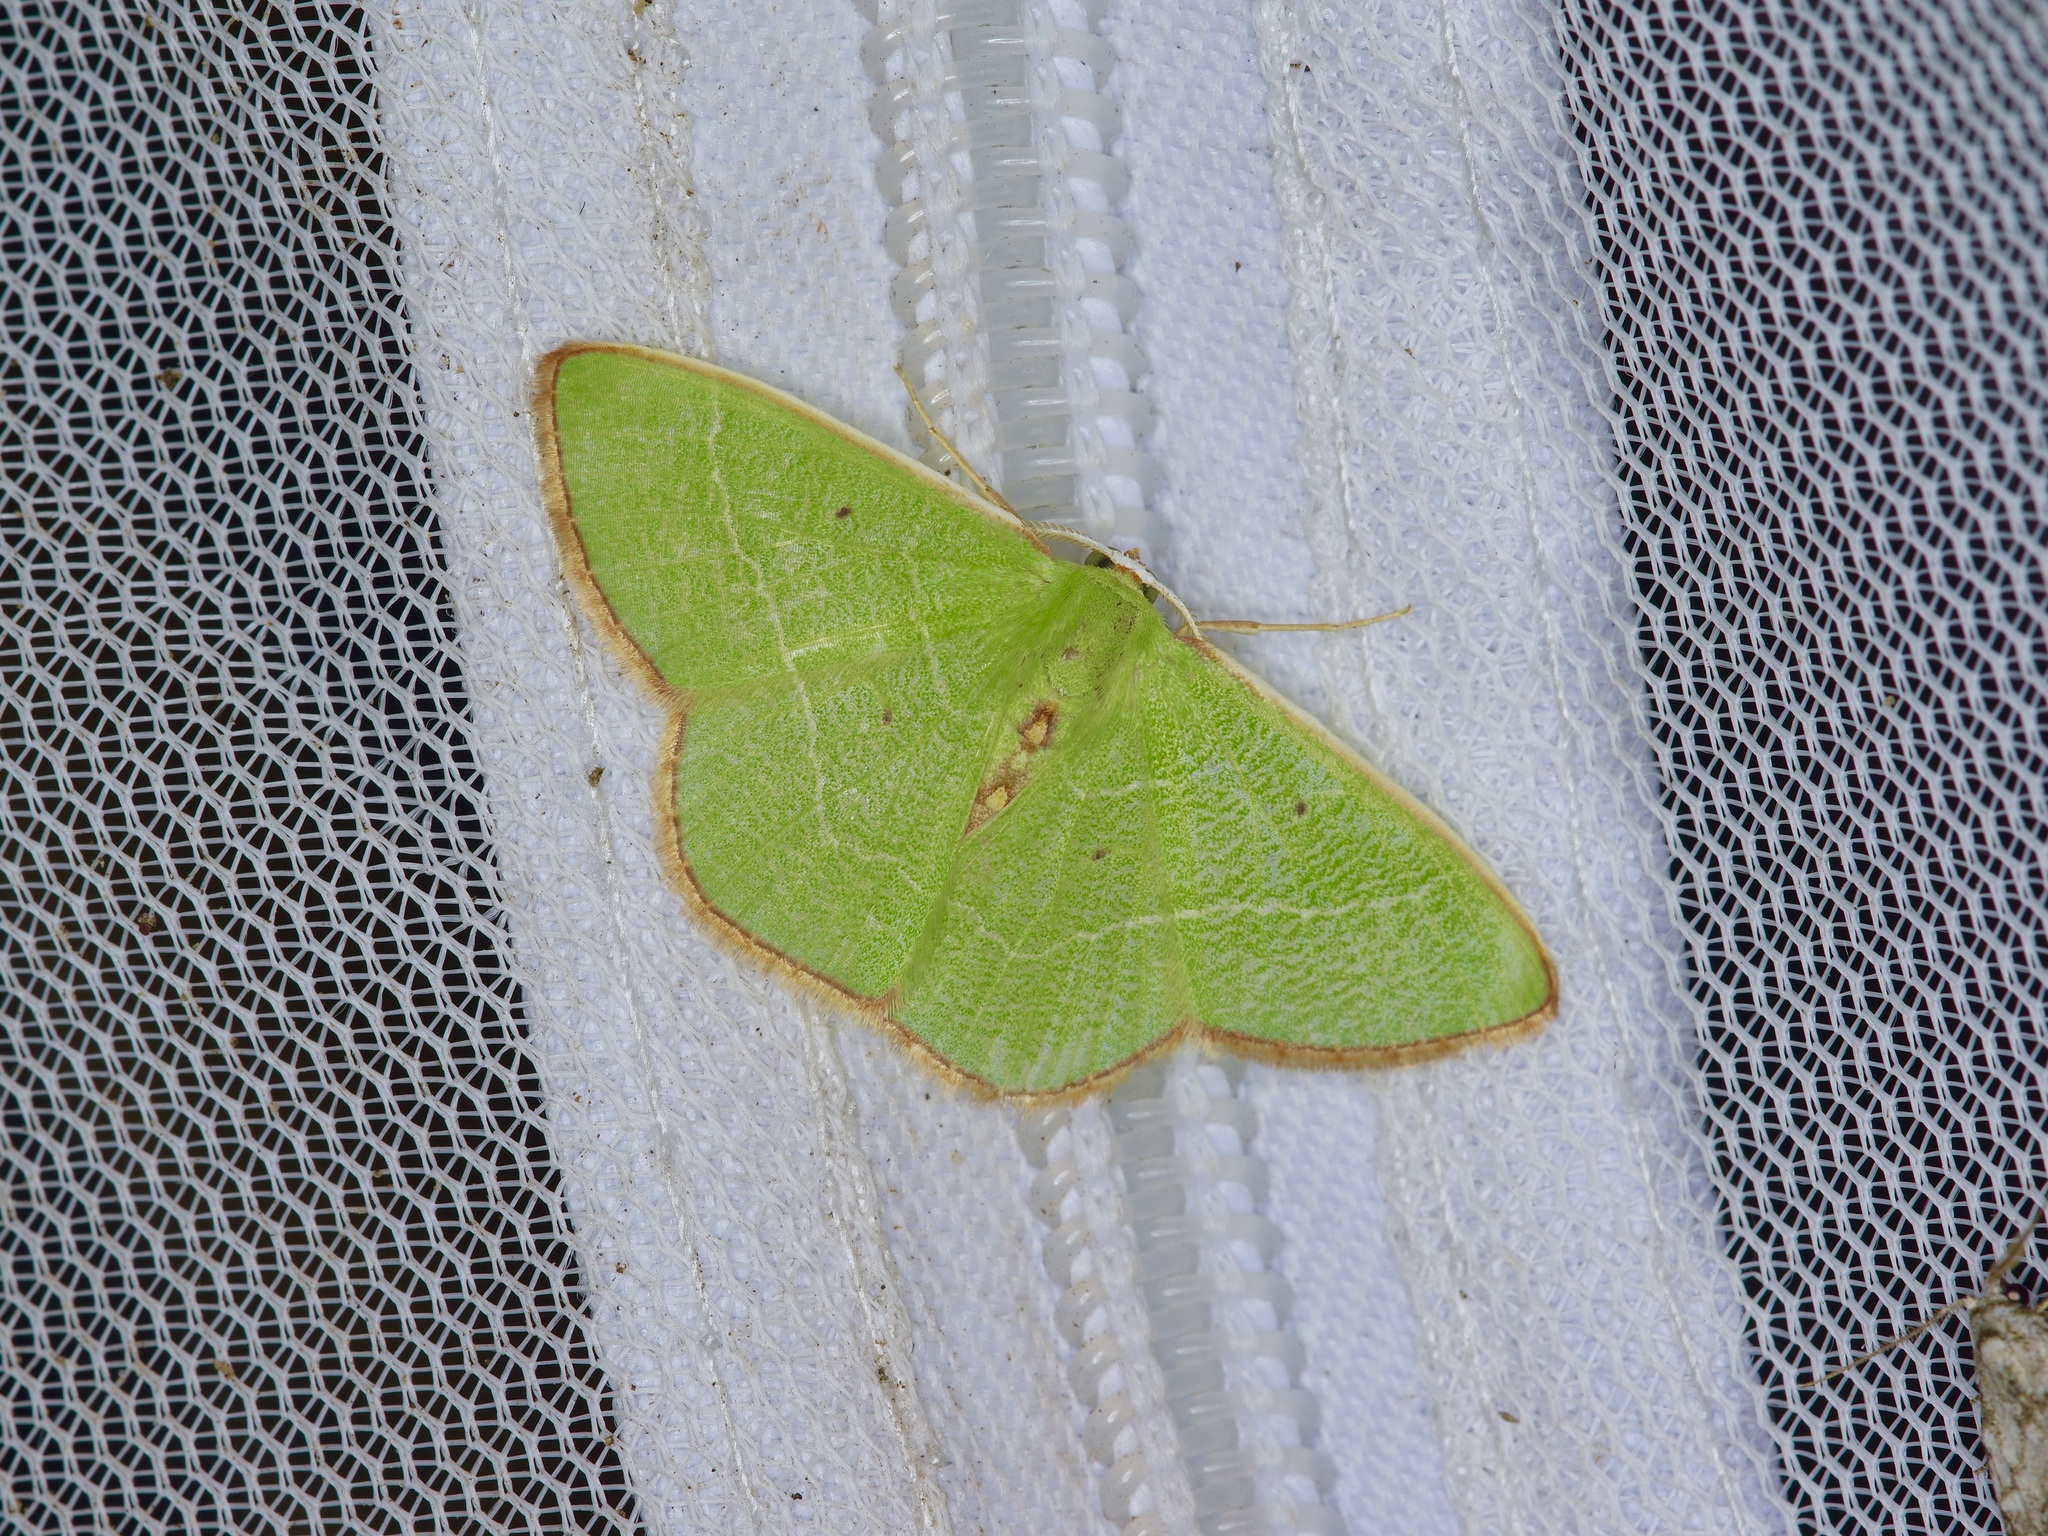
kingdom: Animalia
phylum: Arthropoda
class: Insecta
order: Lepidoptera
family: Geometridae
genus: Nemoria
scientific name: Nemoria bifilata
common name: White-barred emerald moth
